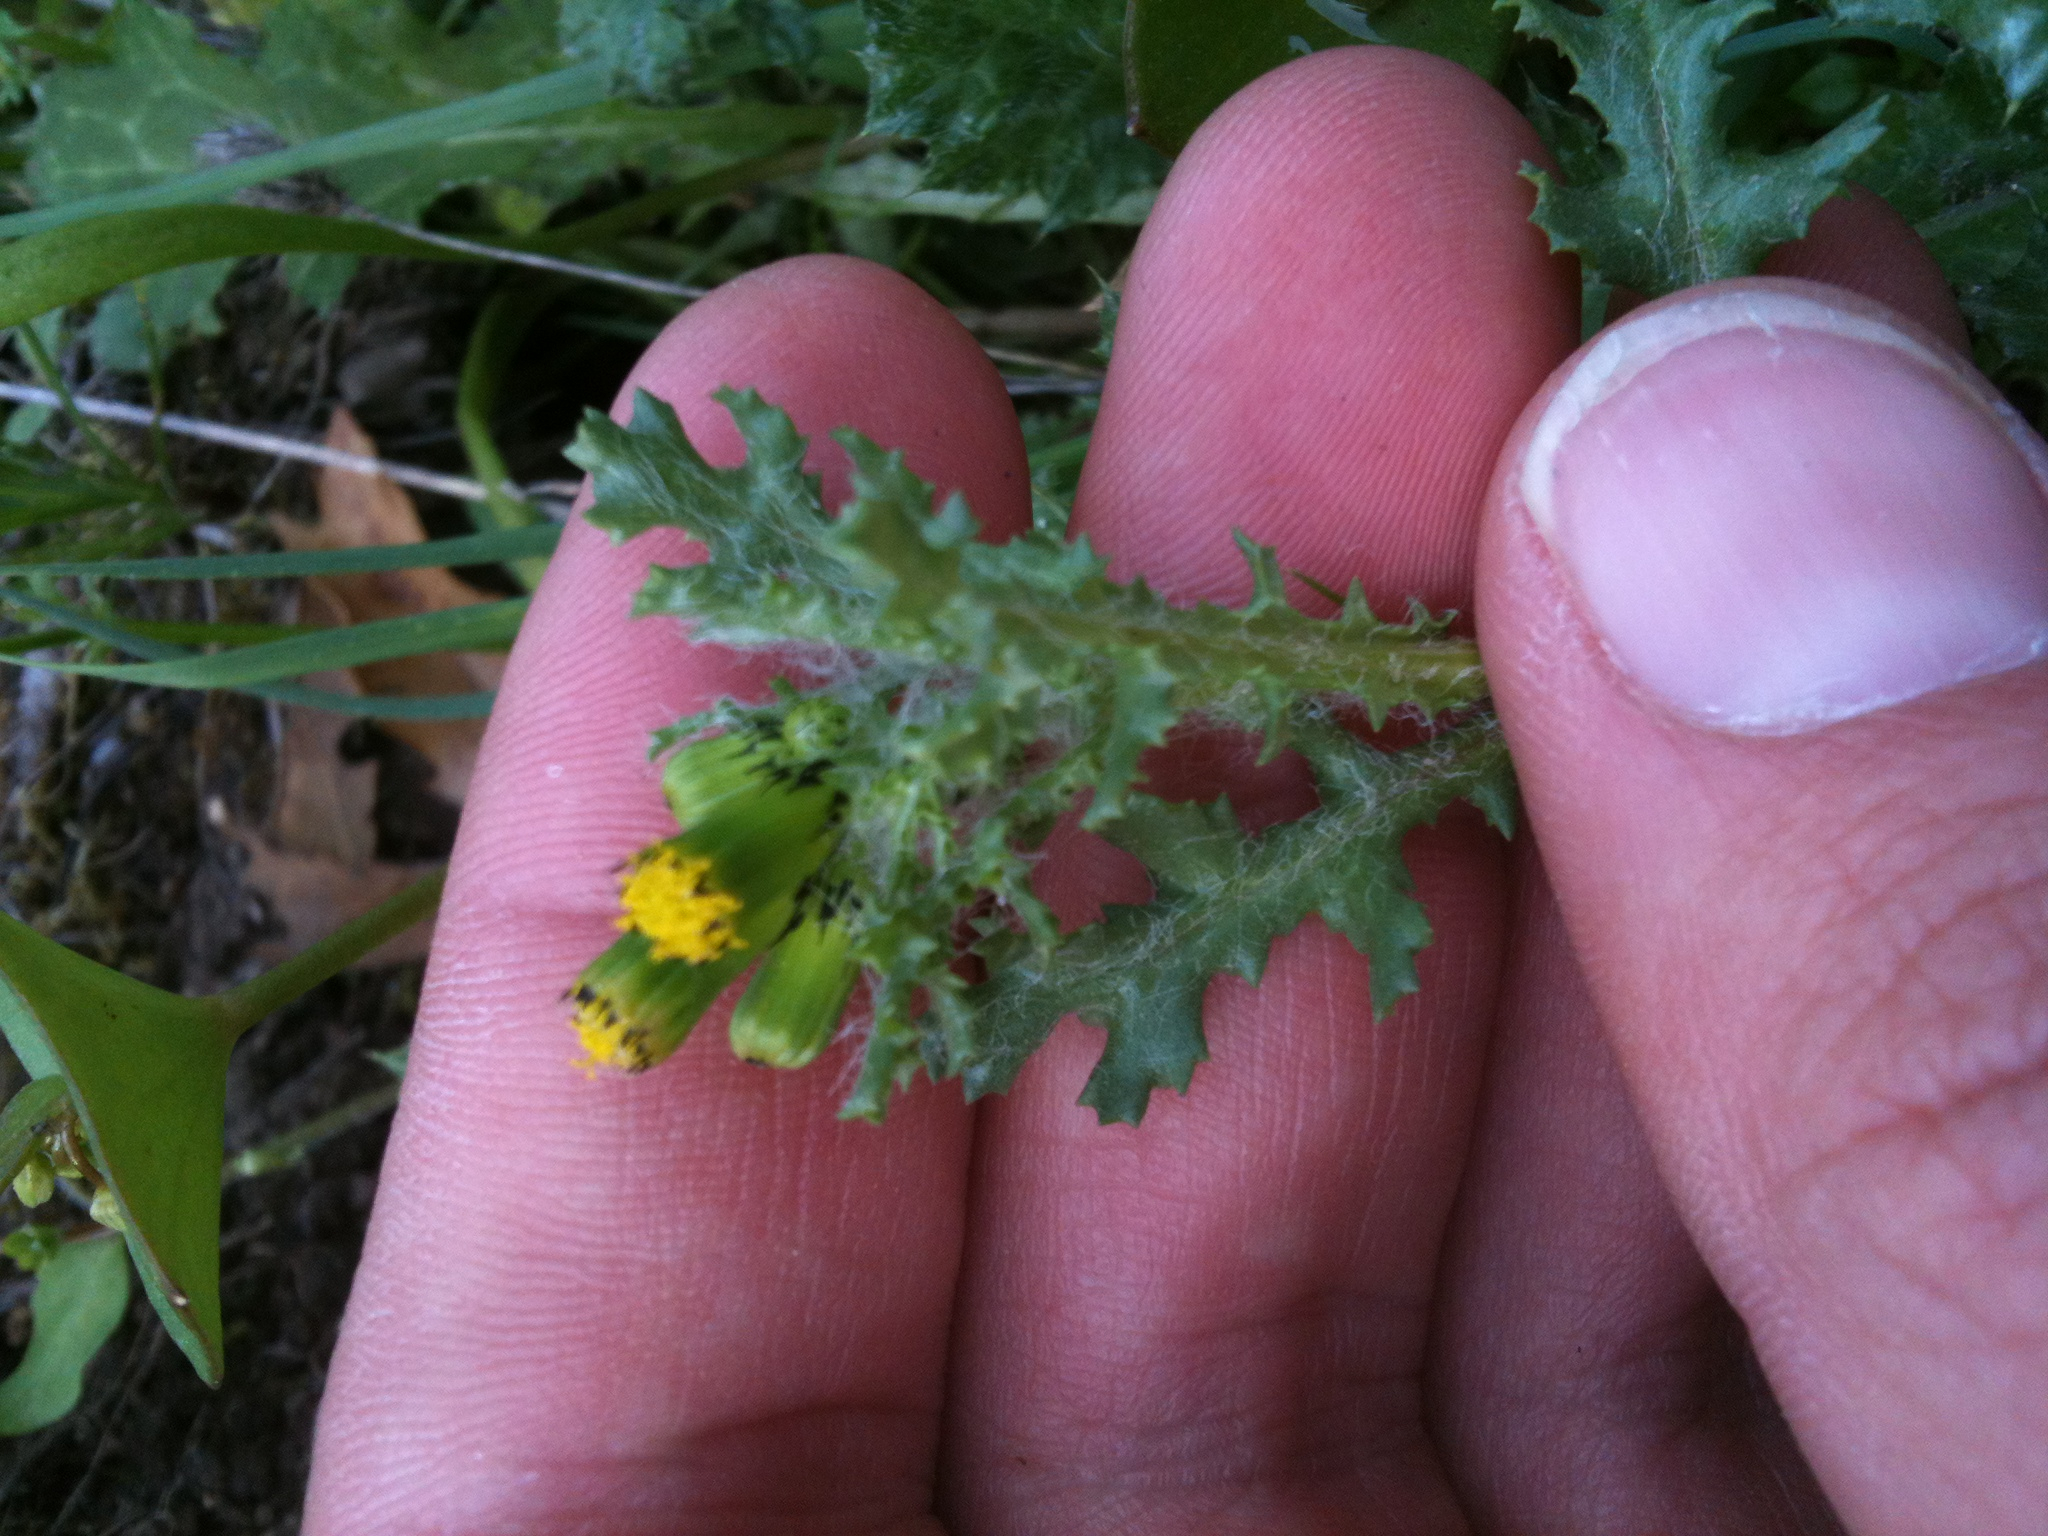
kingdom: Plantae
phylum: Tracheophyta
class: Magnoliopsida
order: Asterales
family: Asteraceae
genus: Senecio
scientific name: Senecio vulgaris
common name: Old-man-in-the-spring
